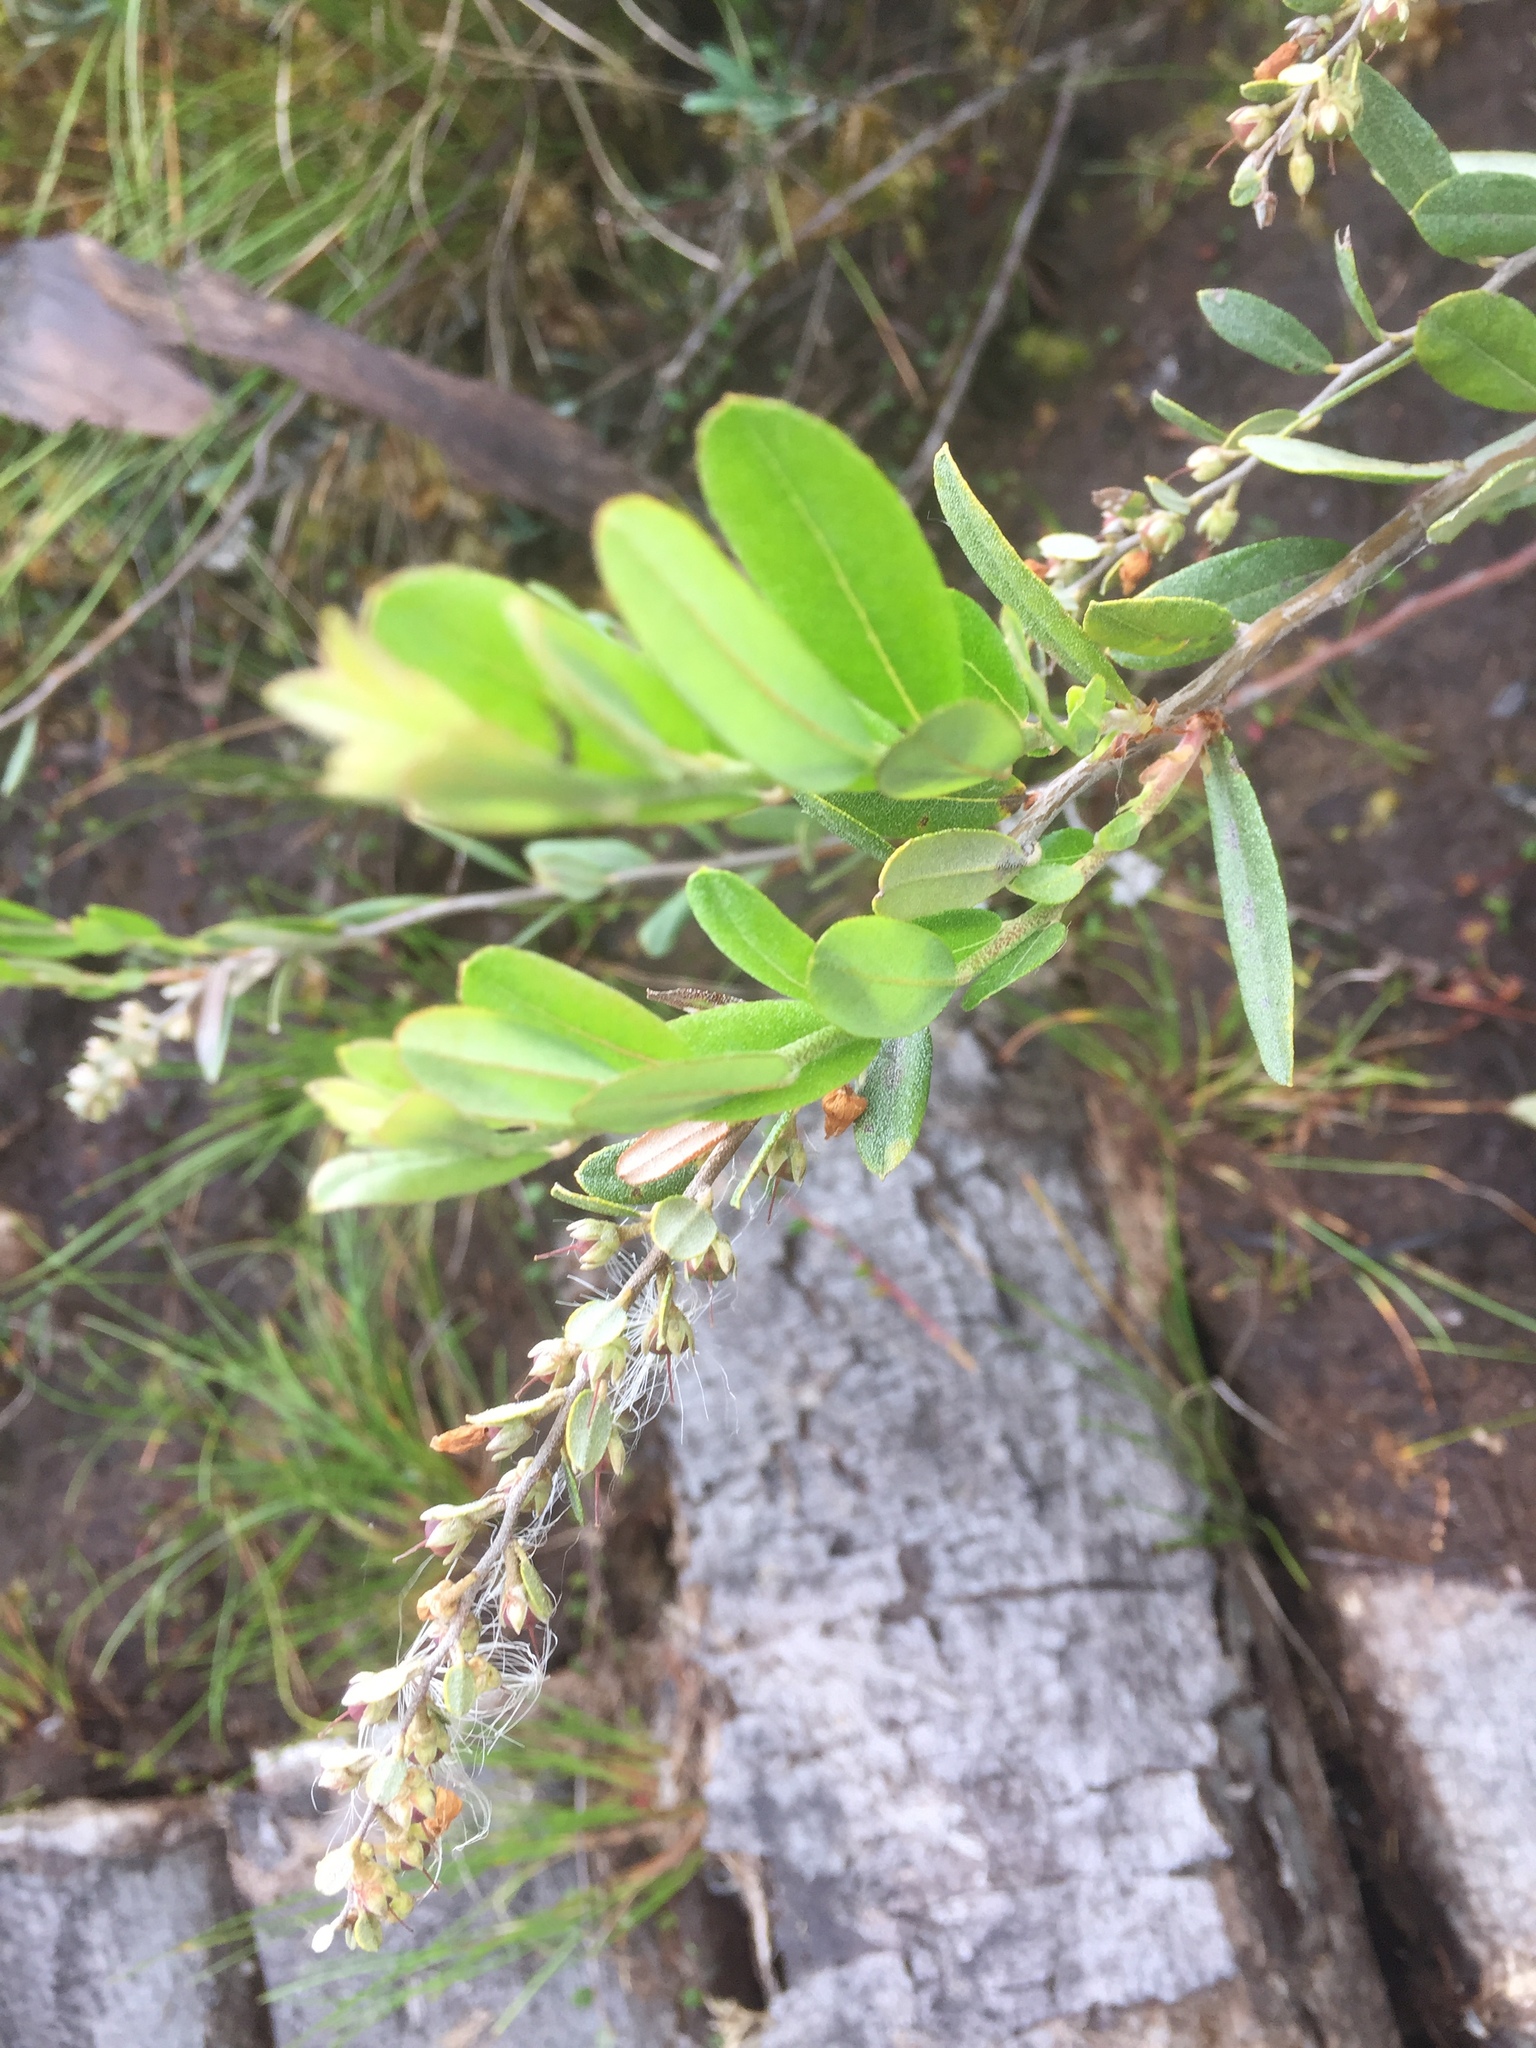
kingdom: Plantae
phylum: Tracheophyta
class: Magnoliopsida
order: Ericales
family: Ericaceae
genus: Chamaedaphne
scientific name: Chamaedaphne calyculata
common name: Leatherleaf
